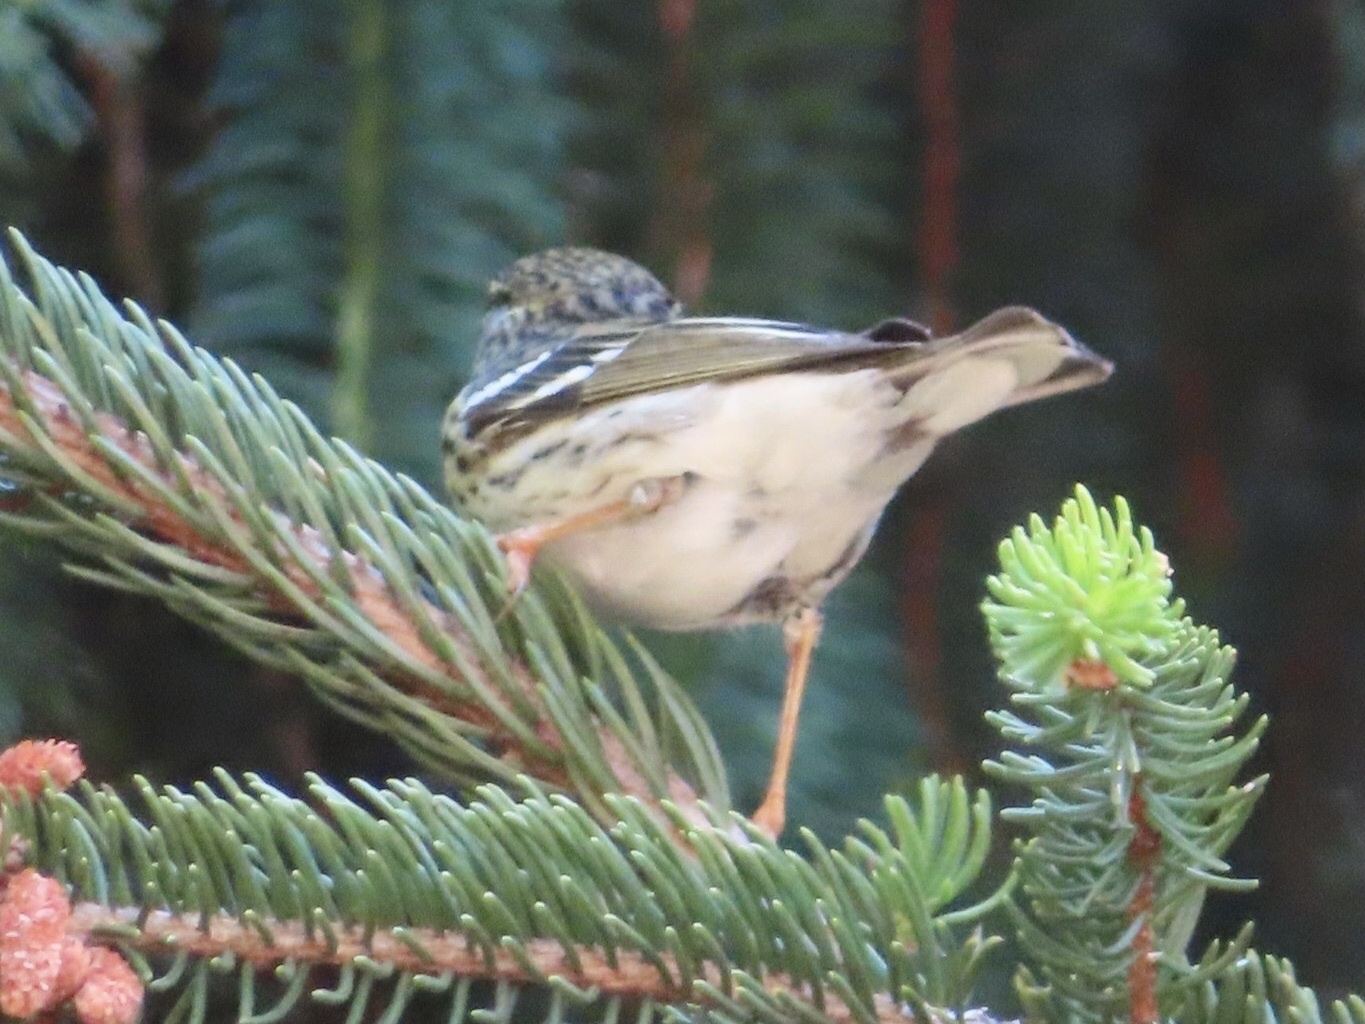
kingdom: Animalia
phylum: Chordata
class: Aves
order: Passeriformes
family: Parulidae
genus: Setophaga
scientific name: Setophaga striata
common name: Blackpoll warbler
